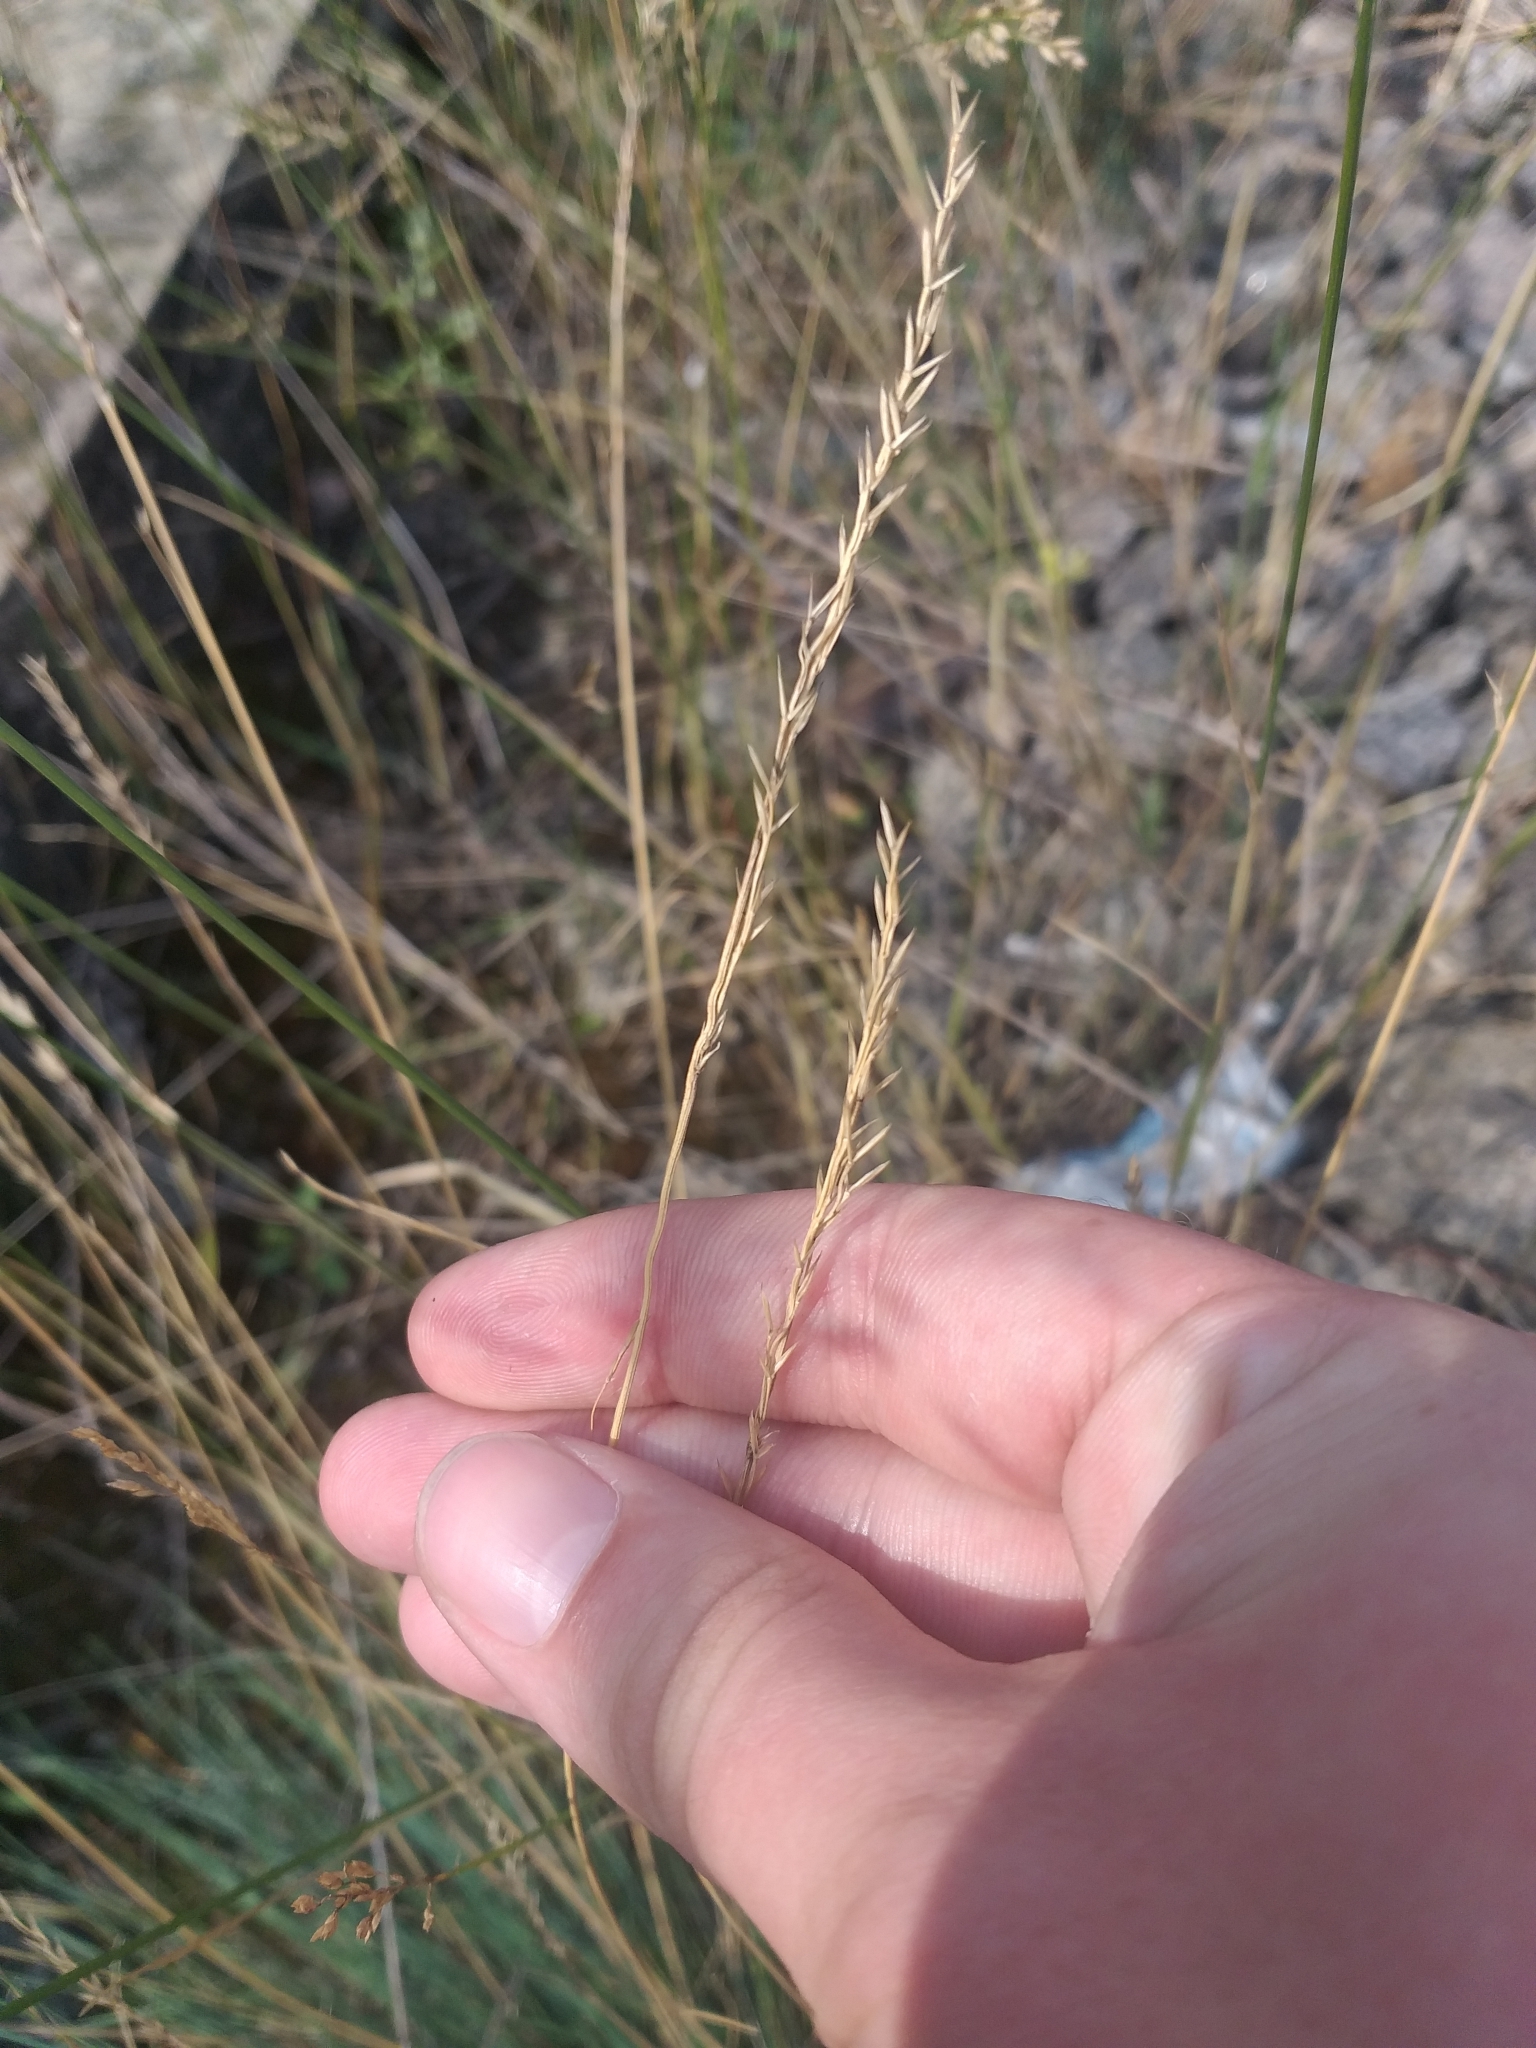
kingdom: Plantae
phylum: Tracheophyta
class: Liliopsida
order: Poales
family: Poaceae
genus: Festuca
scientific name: Festuca valesiaca
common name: Volga fescue
